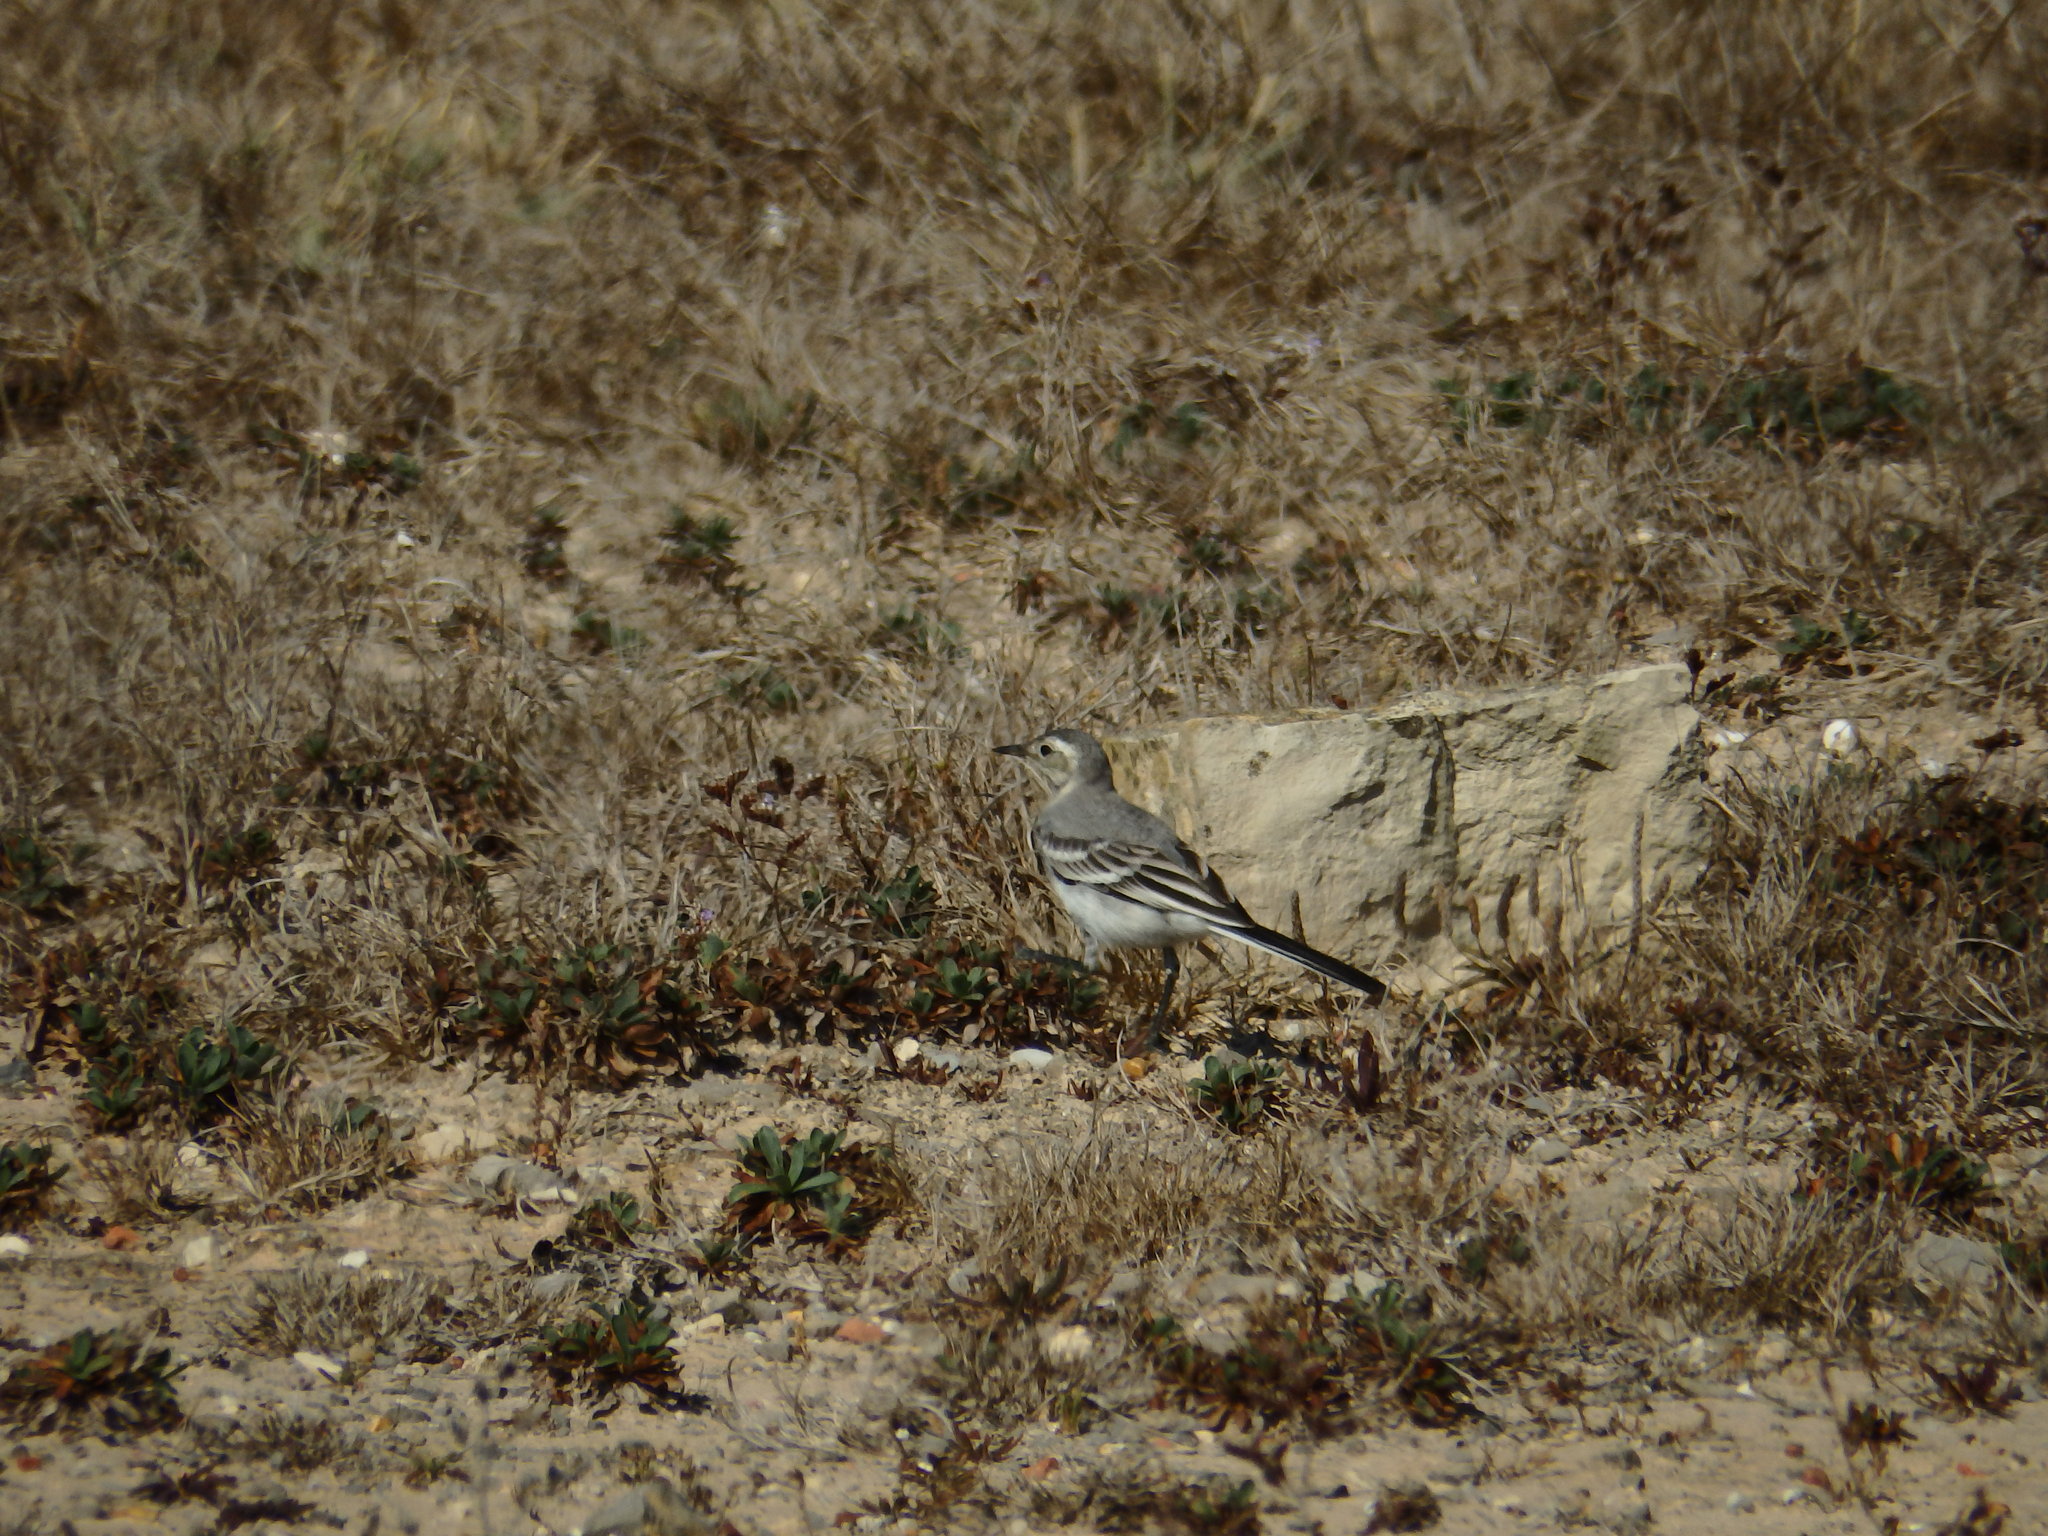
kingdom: Animalia
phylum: Chordata
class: Aves
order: Passeriformes
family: Motacillidae
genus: Motacilla
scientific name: Motacilla alba
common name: White wagtail
